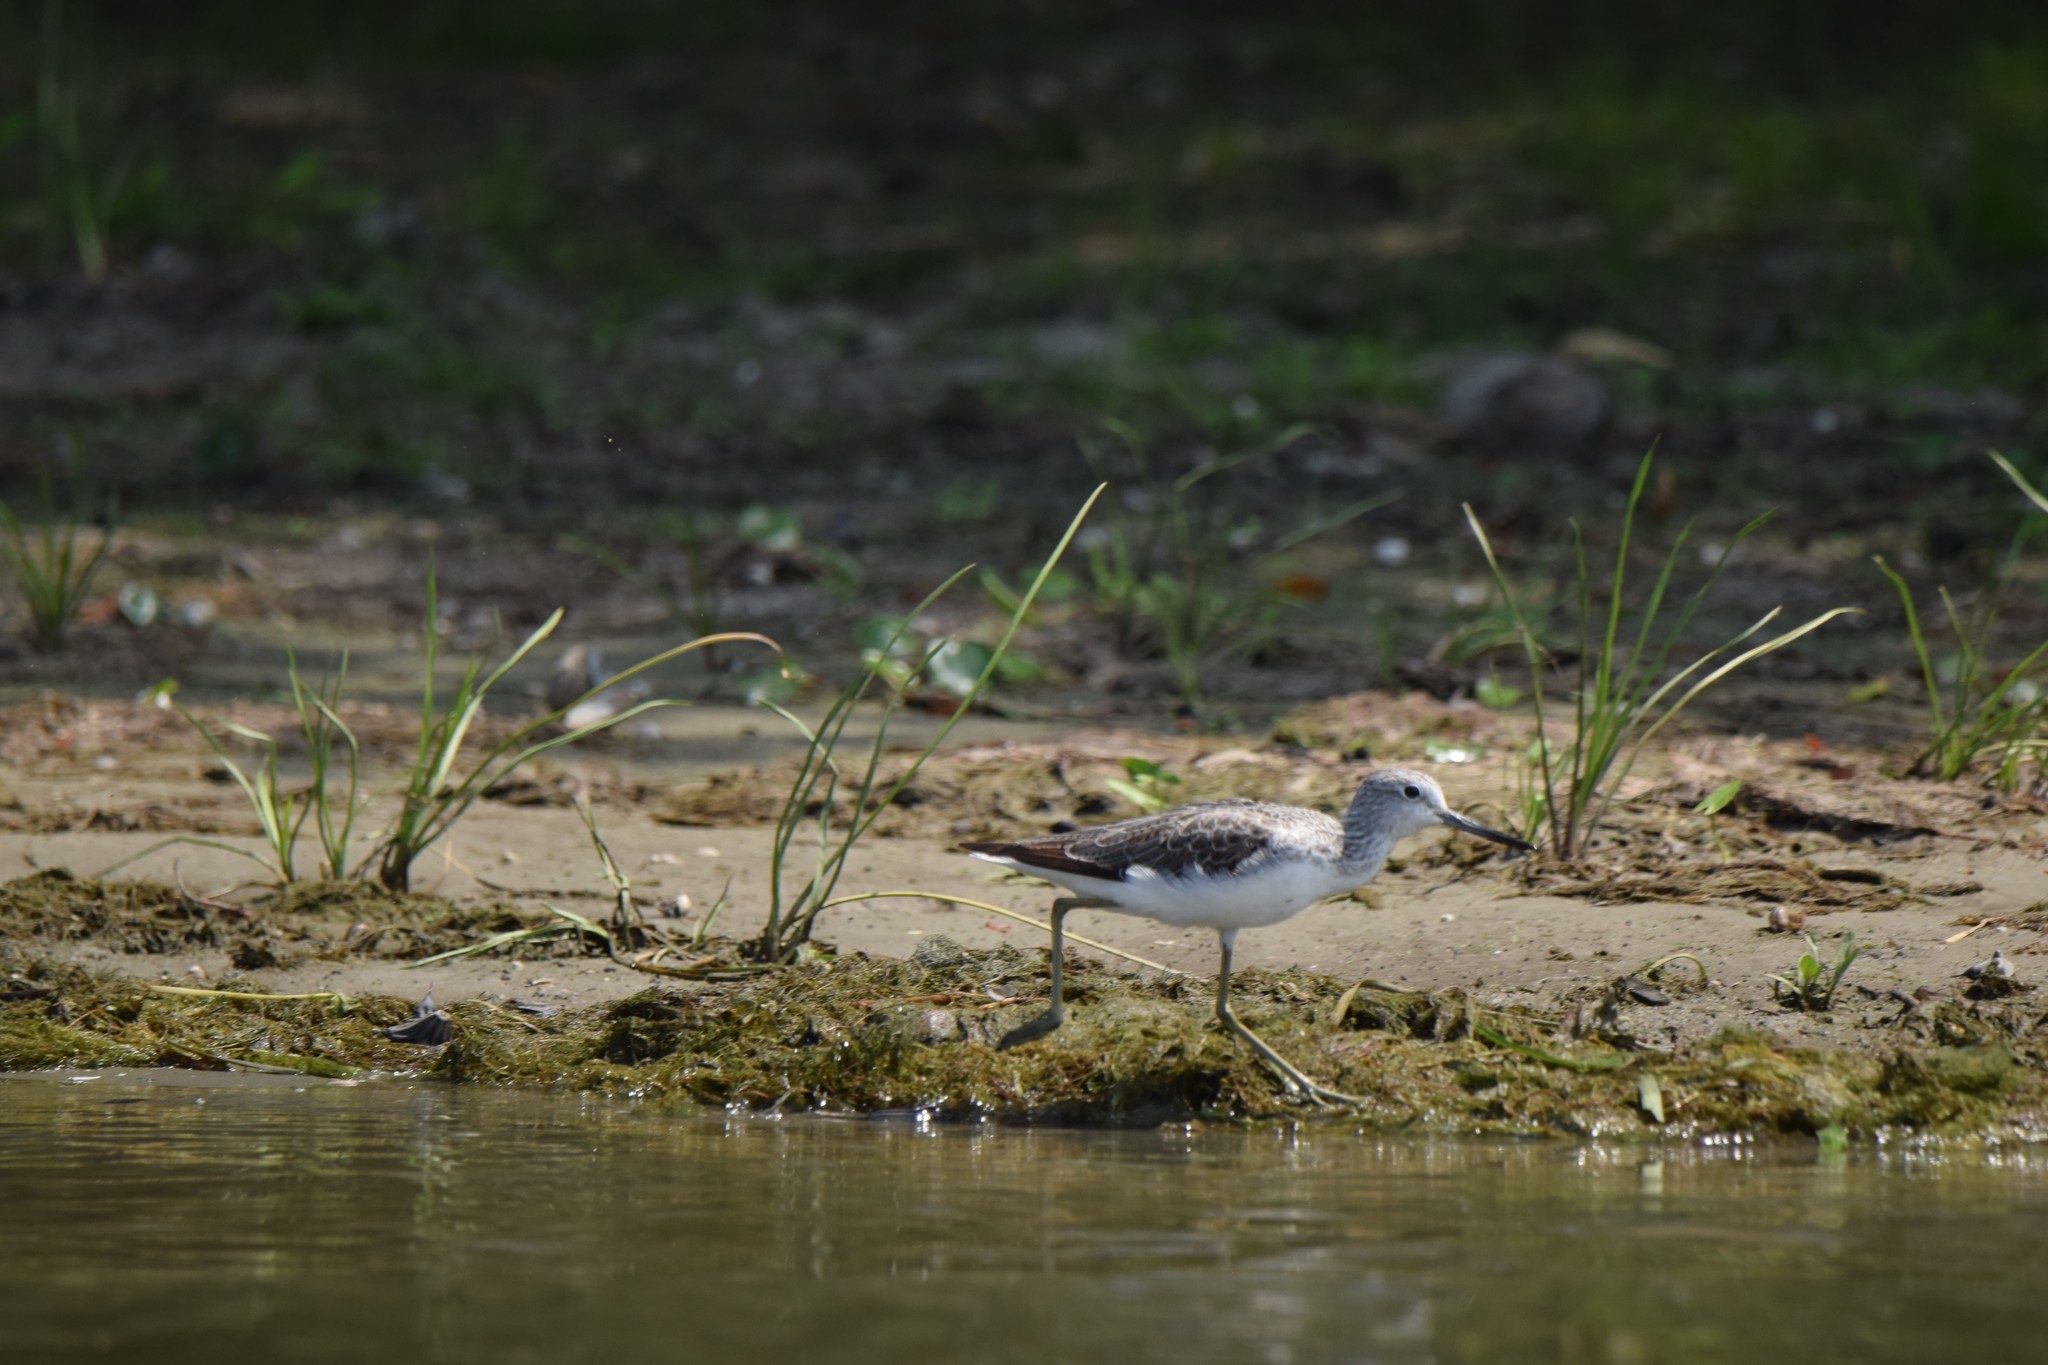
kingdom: Animalia
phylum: Chordata
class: Aves
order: Charadriiformes
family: Scolopacidae
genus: Tringa
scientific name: Tringa nebularia
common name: Common greenshank
